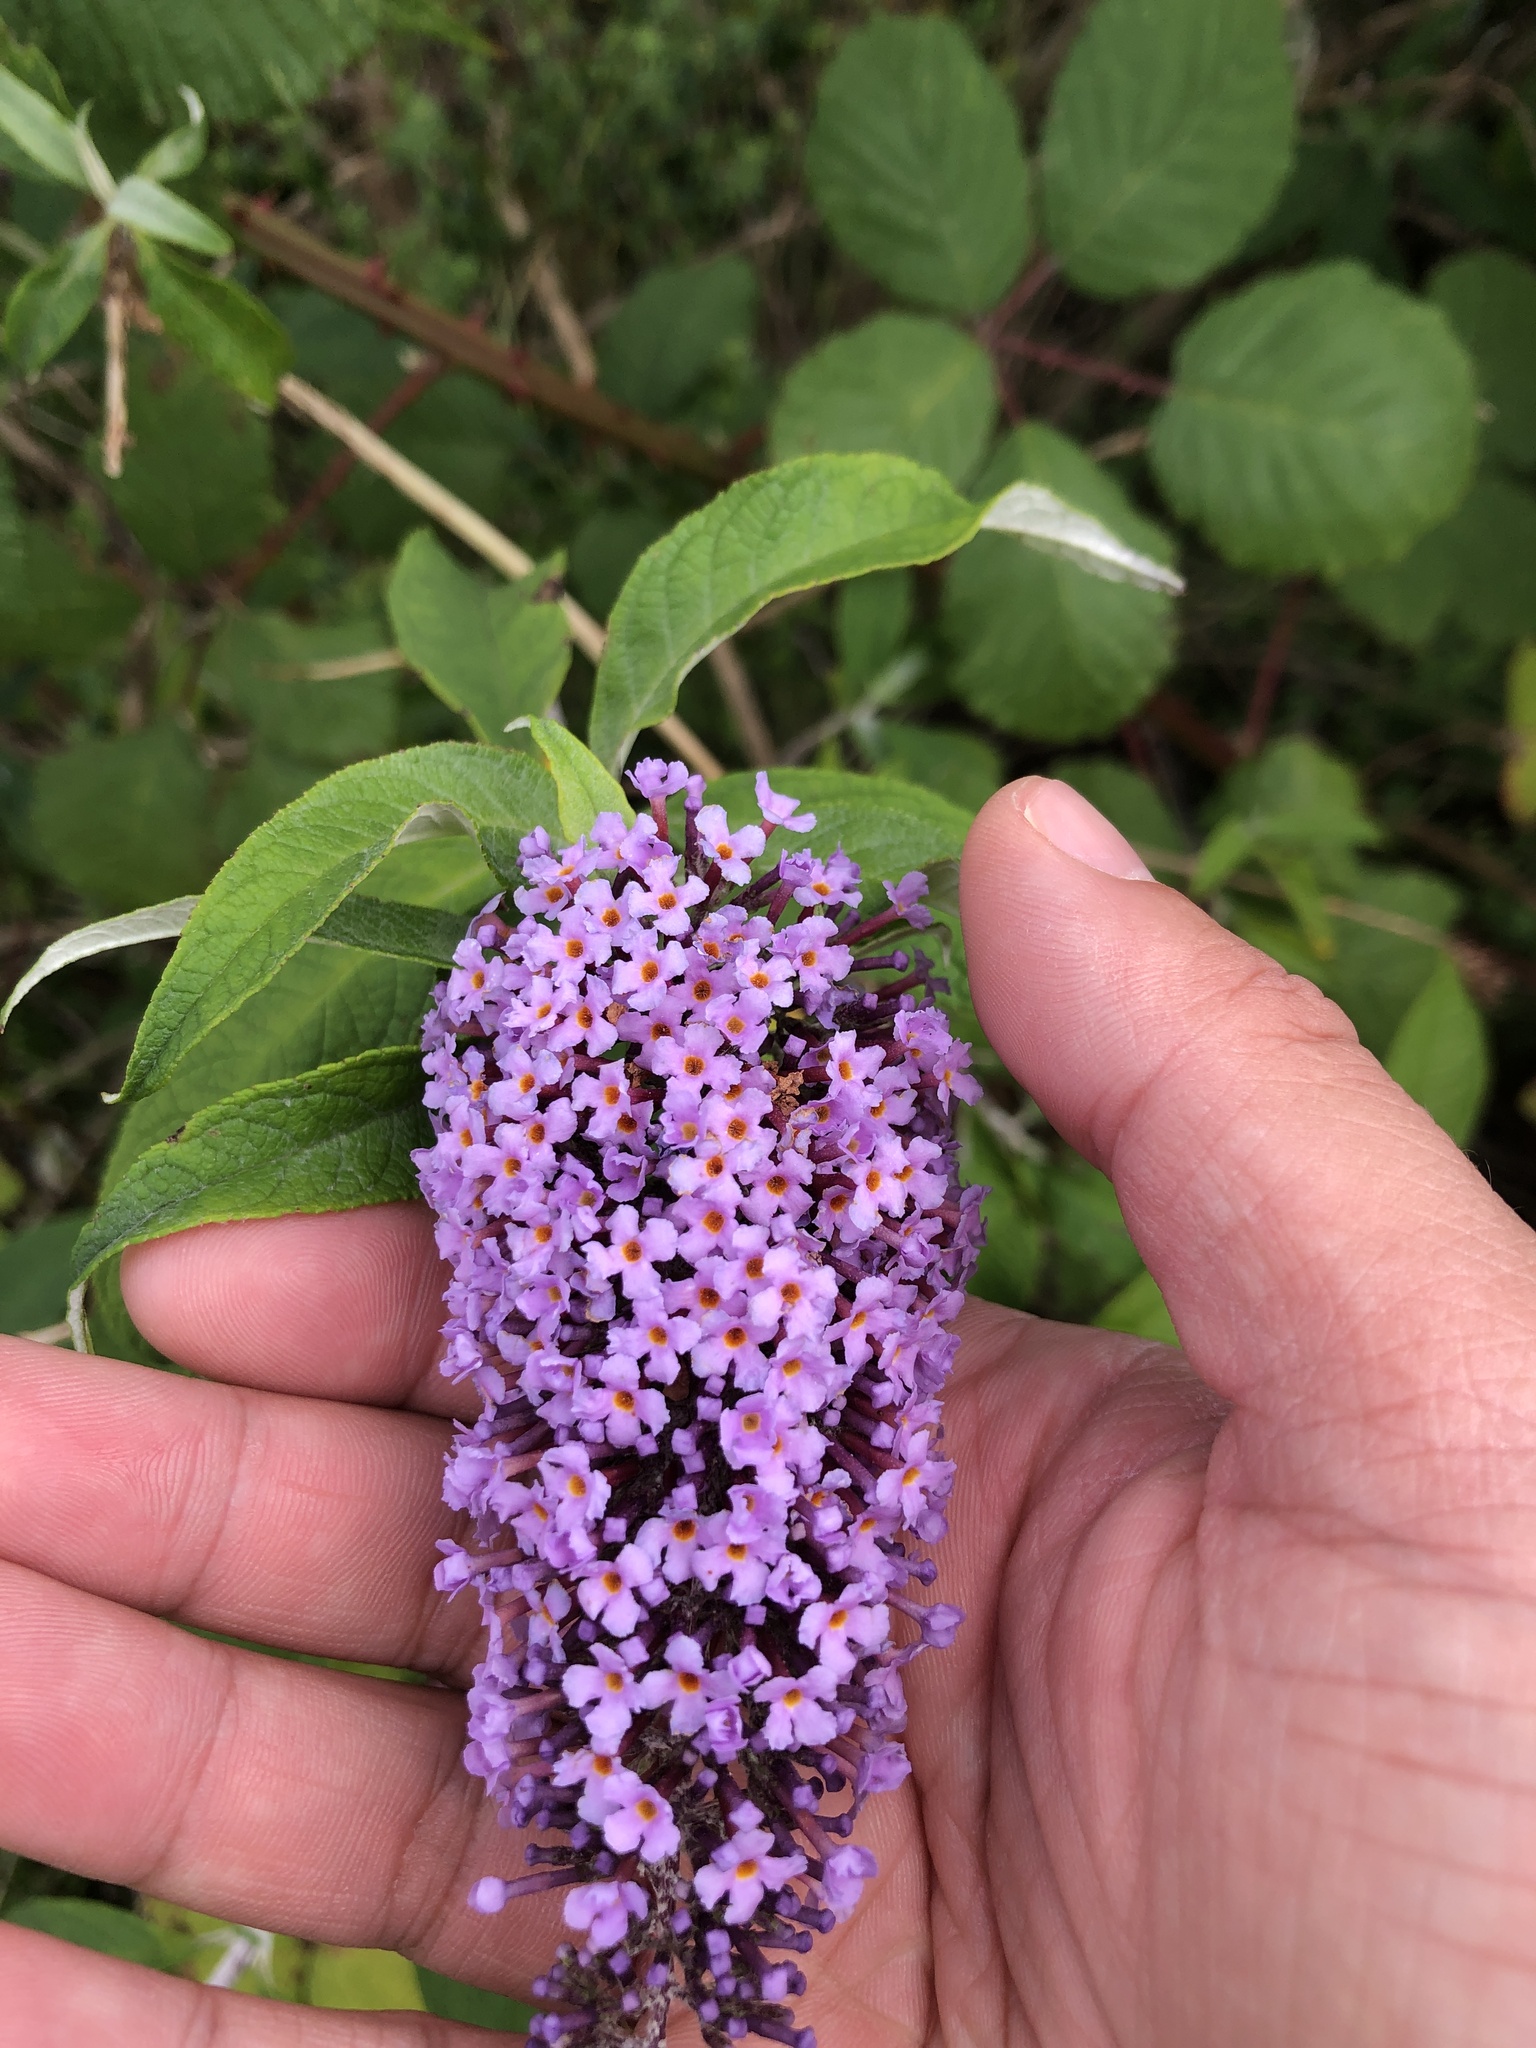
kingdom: Plantae
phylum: Tracheophyta
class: Magnoliopsida
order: Lamiales
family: Scrophulariaceae
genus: Buddleja
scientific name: Buddleja davidii
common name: Butterfly-bush
